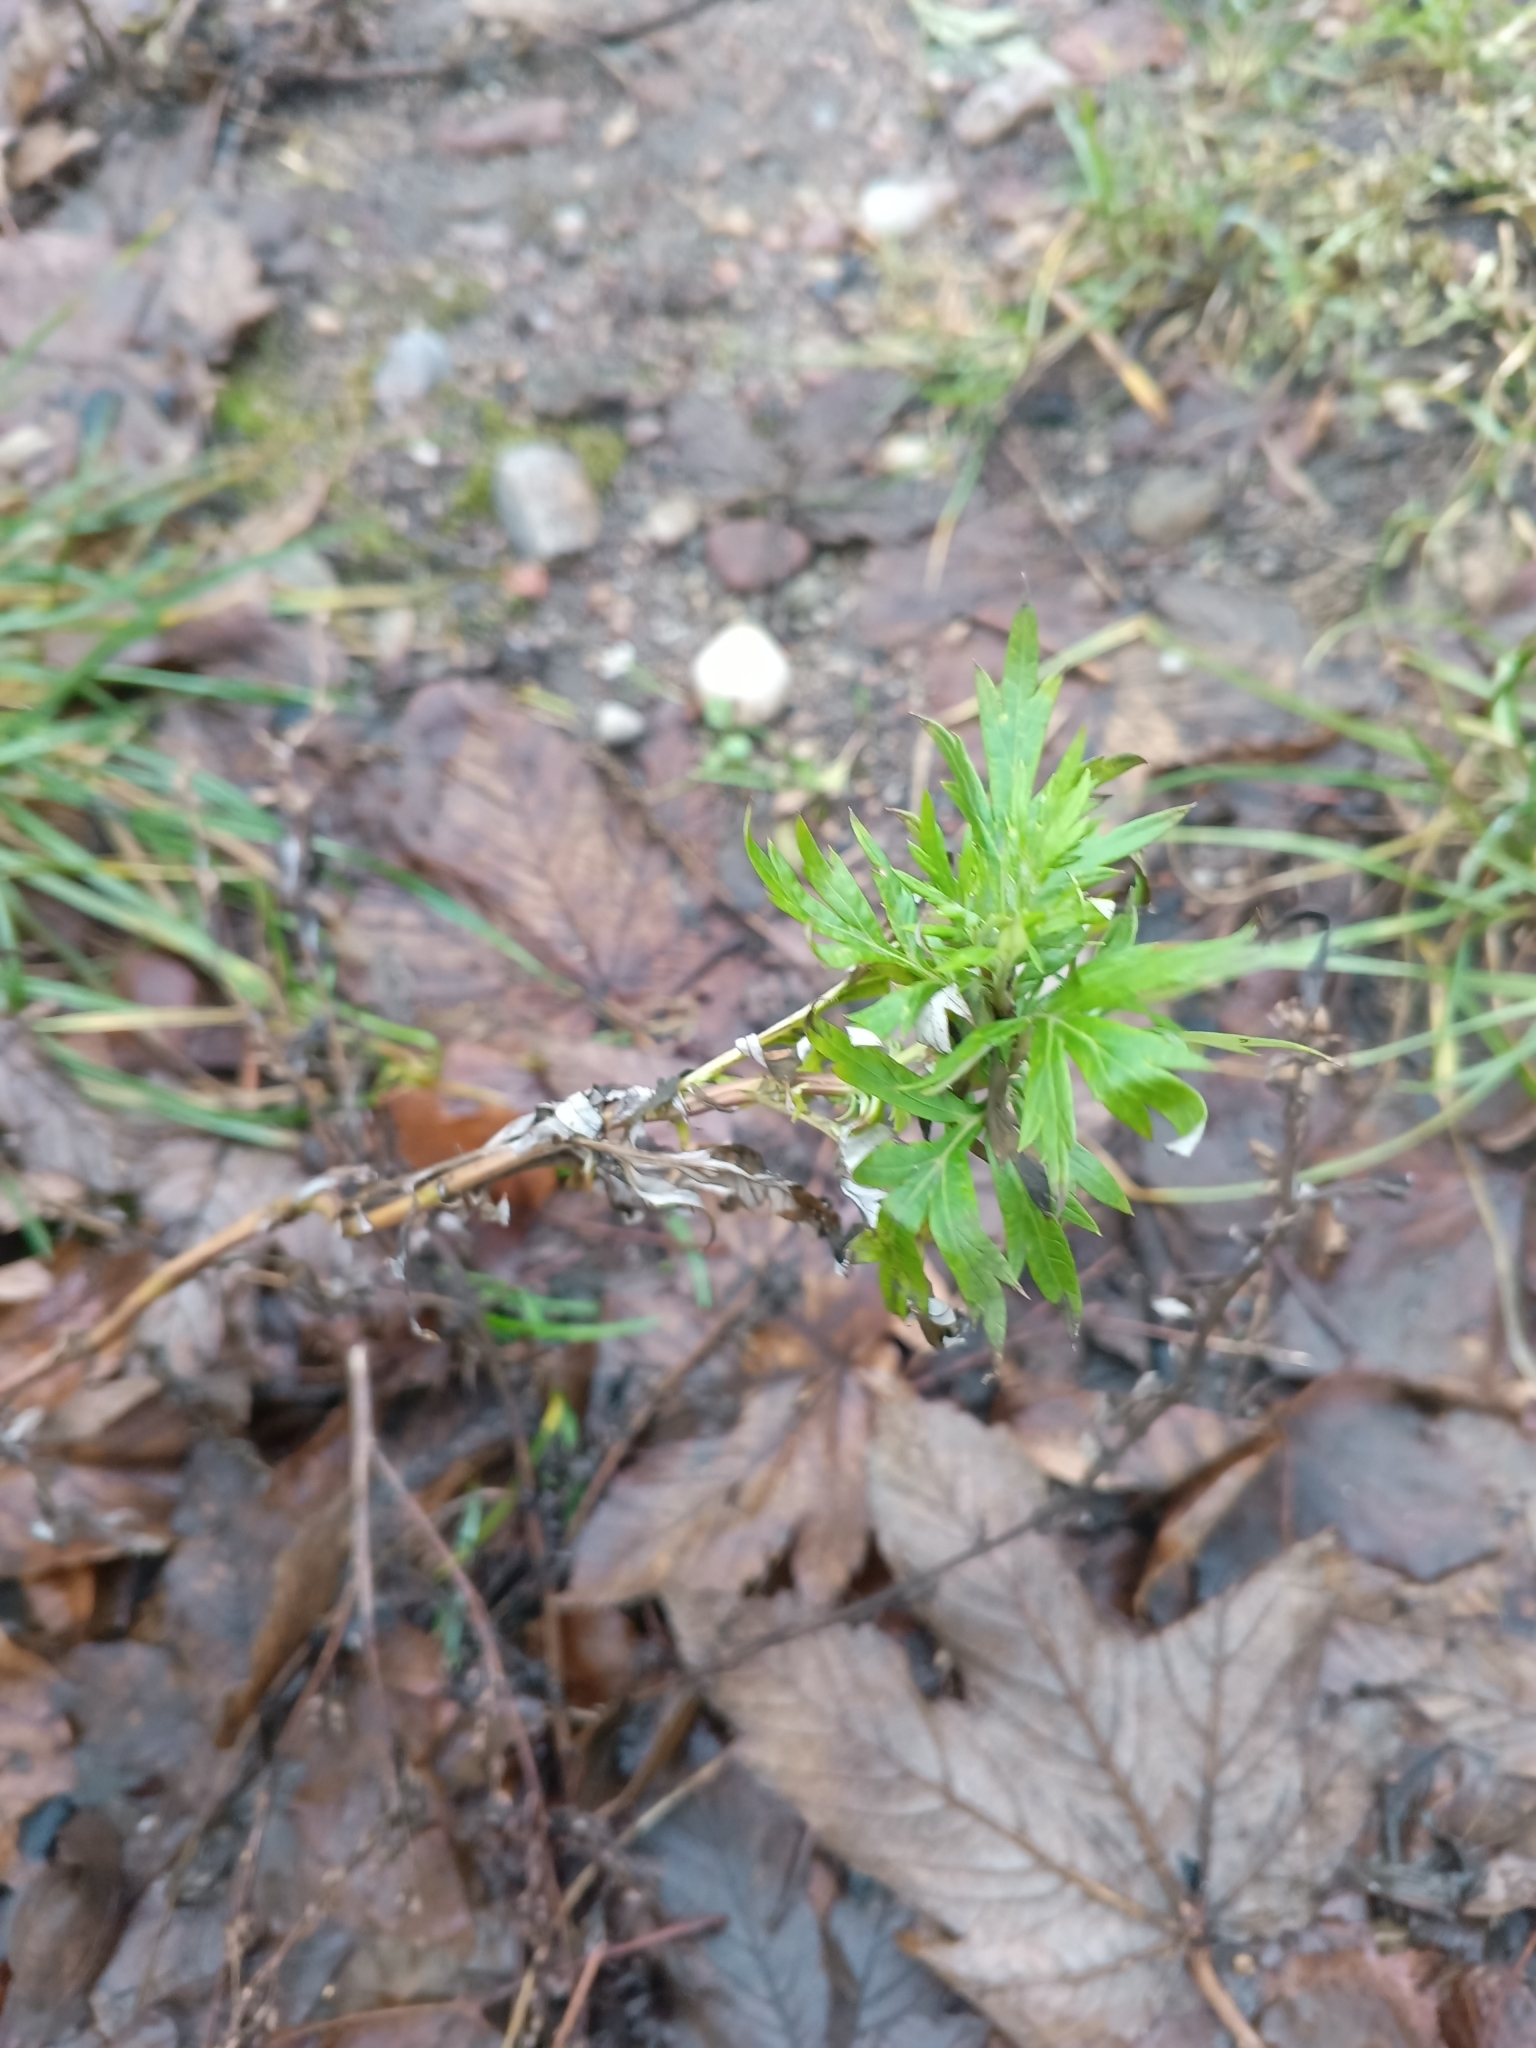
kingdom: Plantae
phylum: Tracheophyta
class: Magnoliopsida
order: Asterales
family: Asteraceae
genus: Artemisia
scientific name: Artemisia vulgaris
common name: Mugwort
